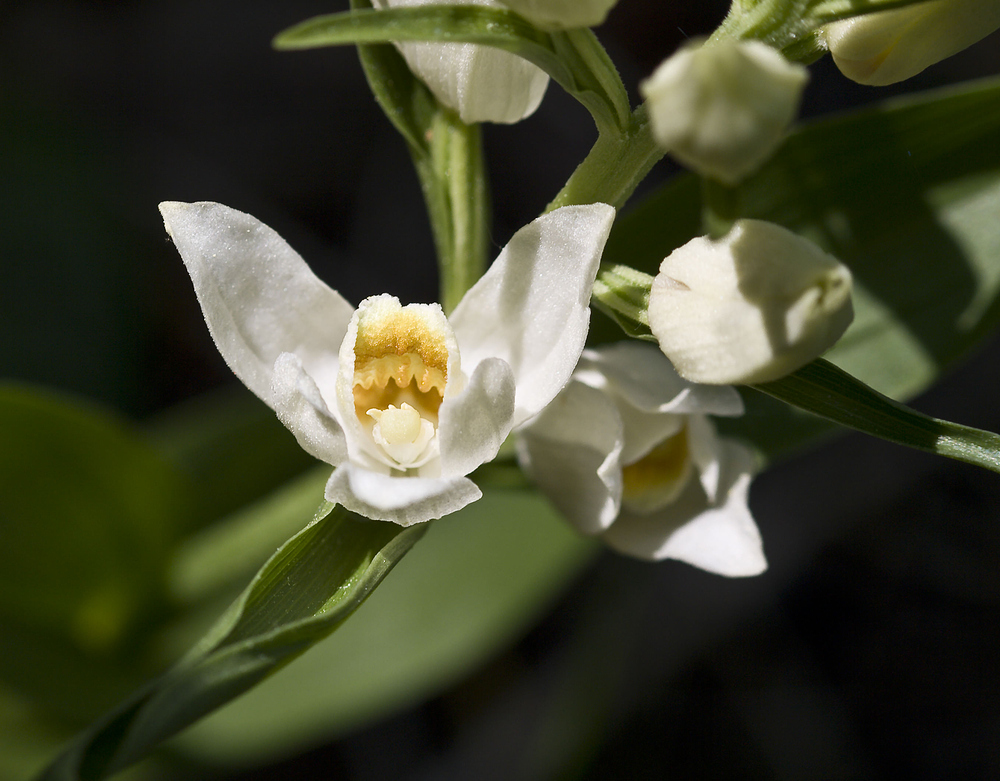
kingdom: Plantae
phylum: Tracheophyta
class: Liliopsida
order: Asparagales
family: Orchidaceae
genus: Cephalanthera
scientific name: Cephalanthera damasonium
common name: White helleborine
